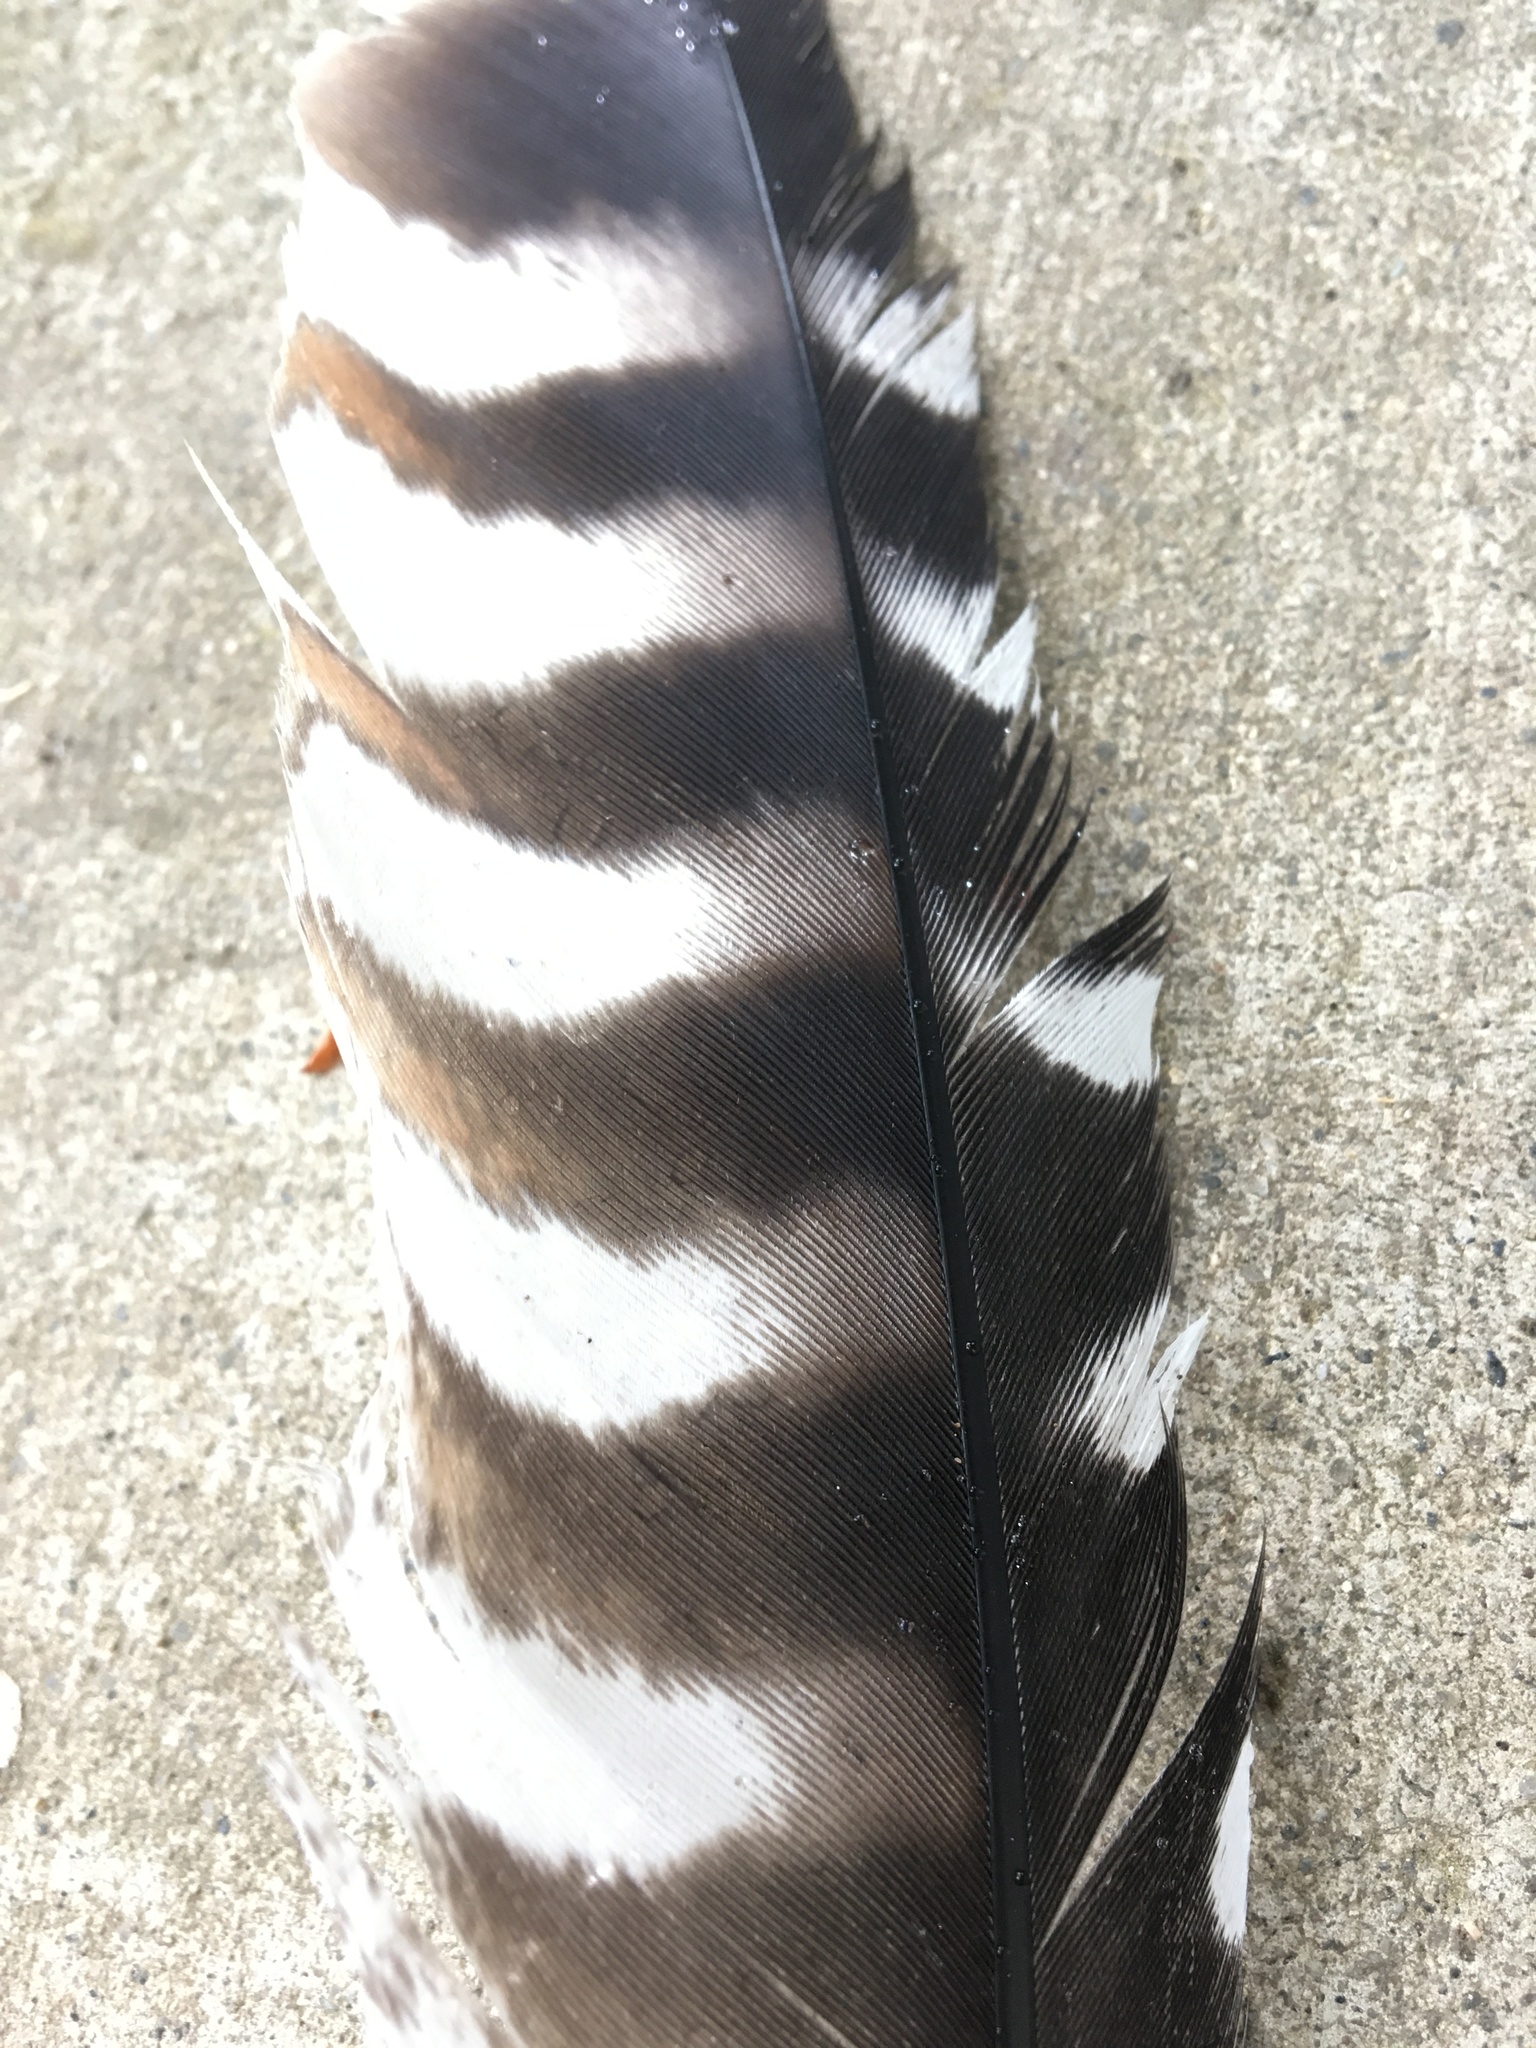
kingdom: Animalia
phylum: Chordata
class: Aves
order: Accipitriformes
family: Accipitridae
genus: Buteo
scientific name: Buteo lineatus
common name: Red-shouldered hawk
